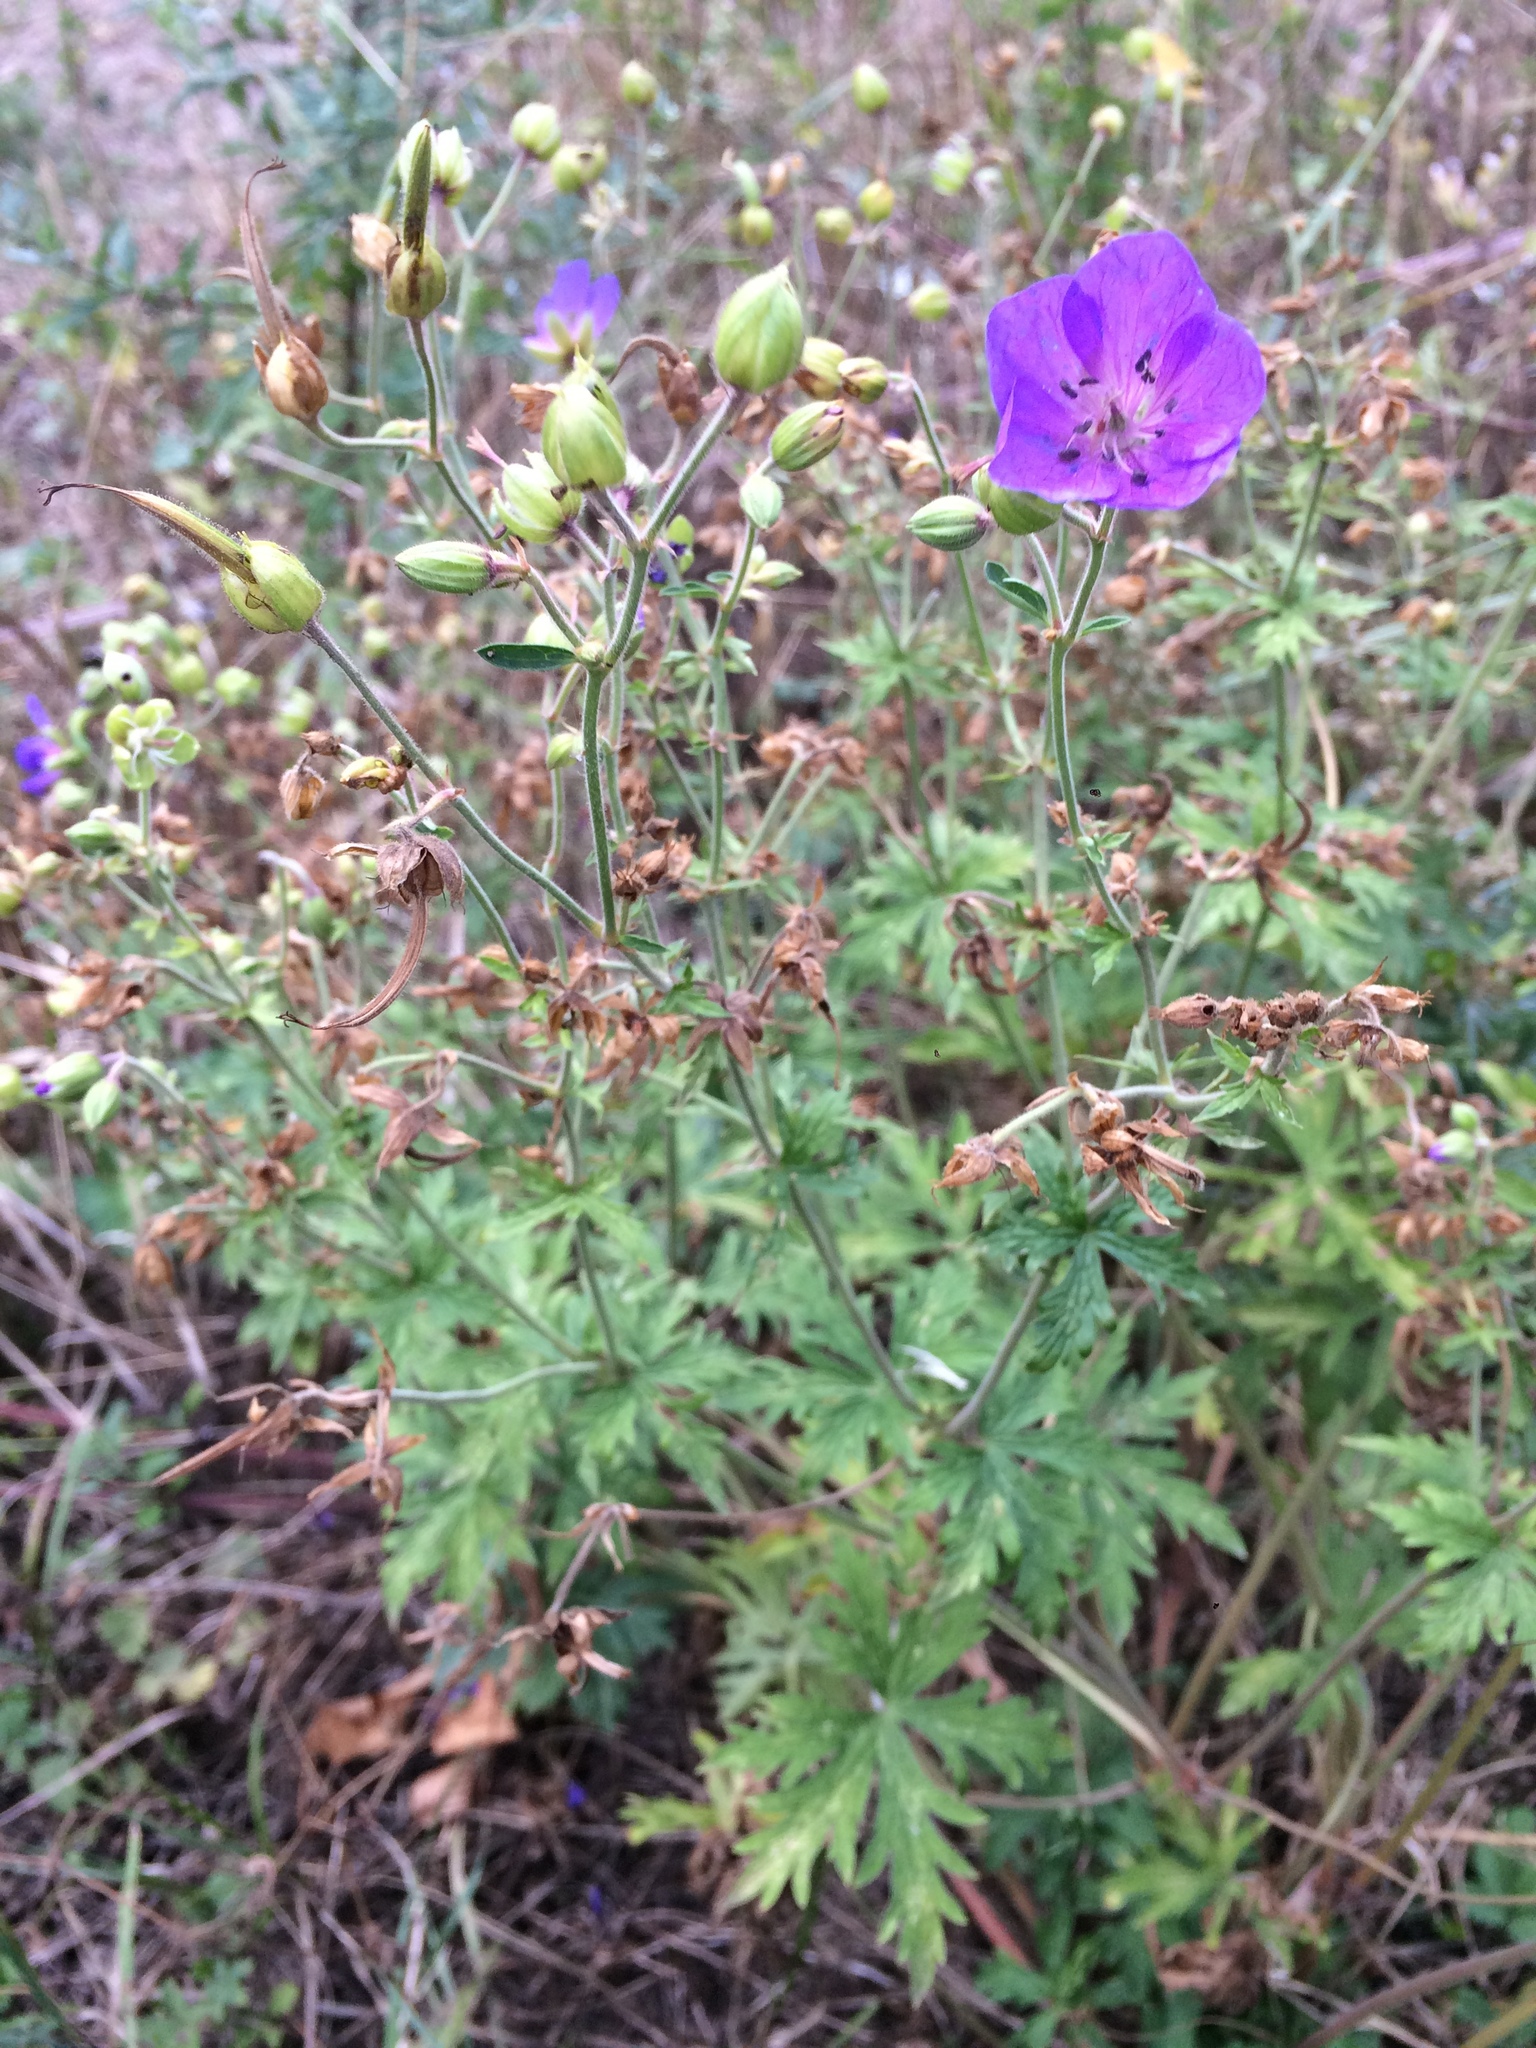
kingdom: Plantae
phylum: Tracheophyta
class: Magnoliopsida
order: Geraniales
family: Geraniaceae
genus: Geranium
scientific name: Geranium pratense
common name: Meadow crane's-bill
